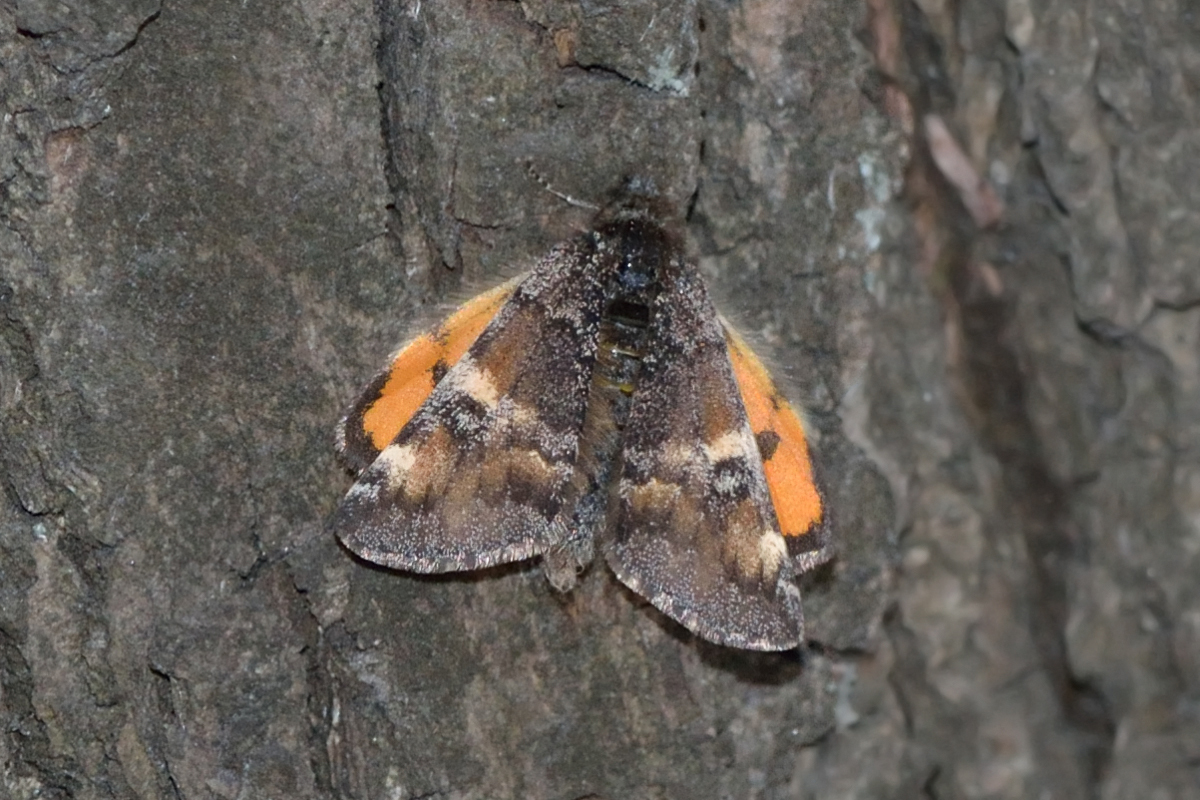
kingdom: Animalia
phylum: Arthropoda
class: Insecta
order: Lepidoptera
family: Geometridae
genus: Archiearis
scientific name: Archiearis parthenias
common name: Orange underwing
